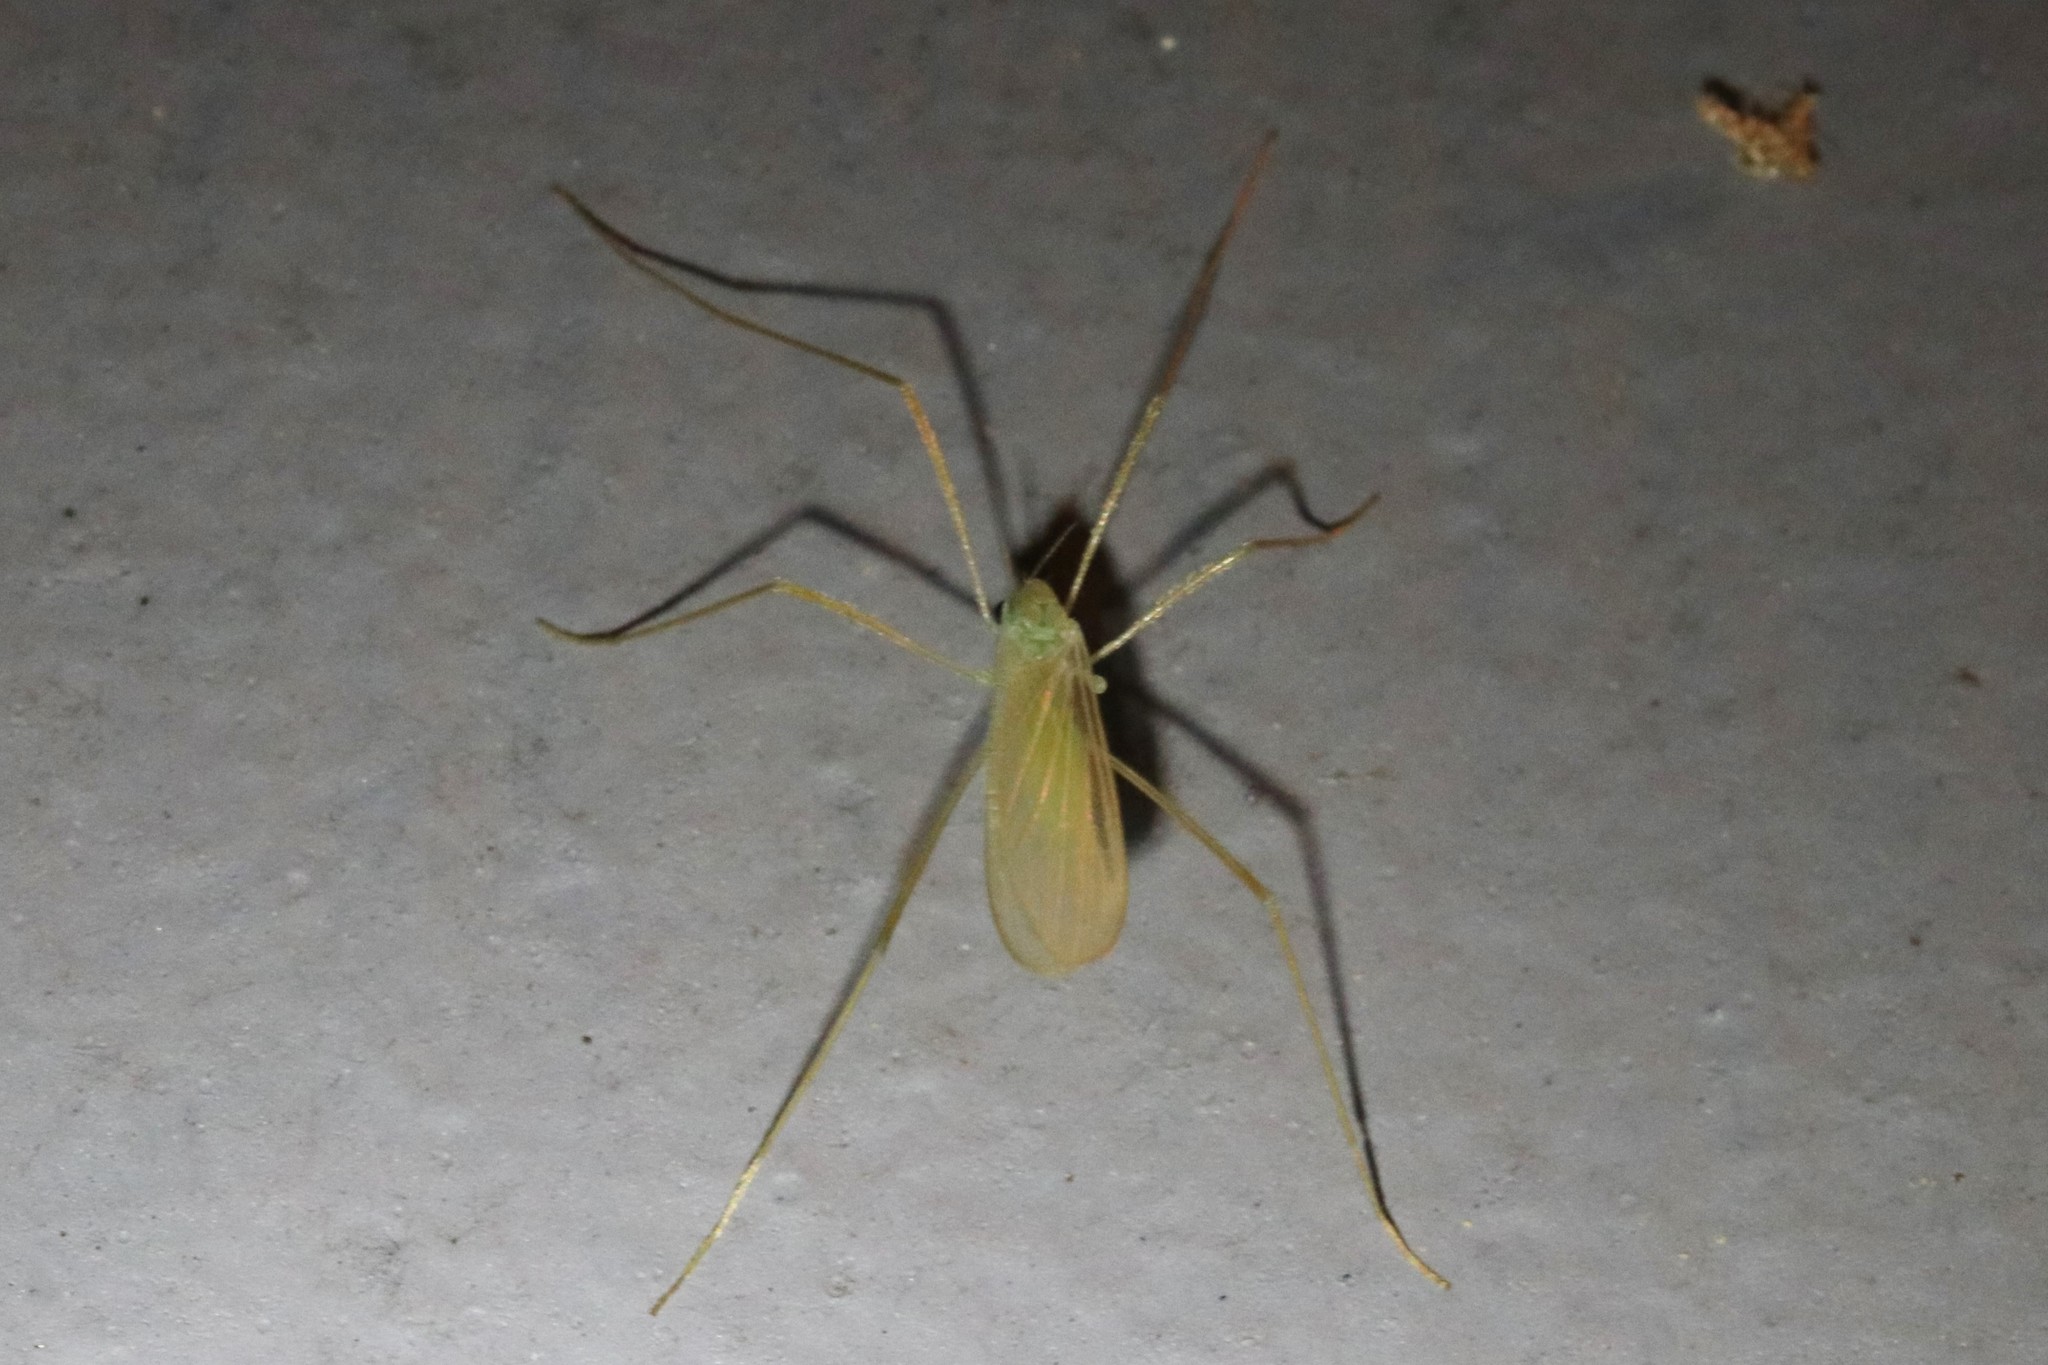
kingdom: Animalia
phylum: Arthropoda
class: Insecta
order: Diptera
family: Limoniidae
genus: Erioptera
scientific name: Erioptera
